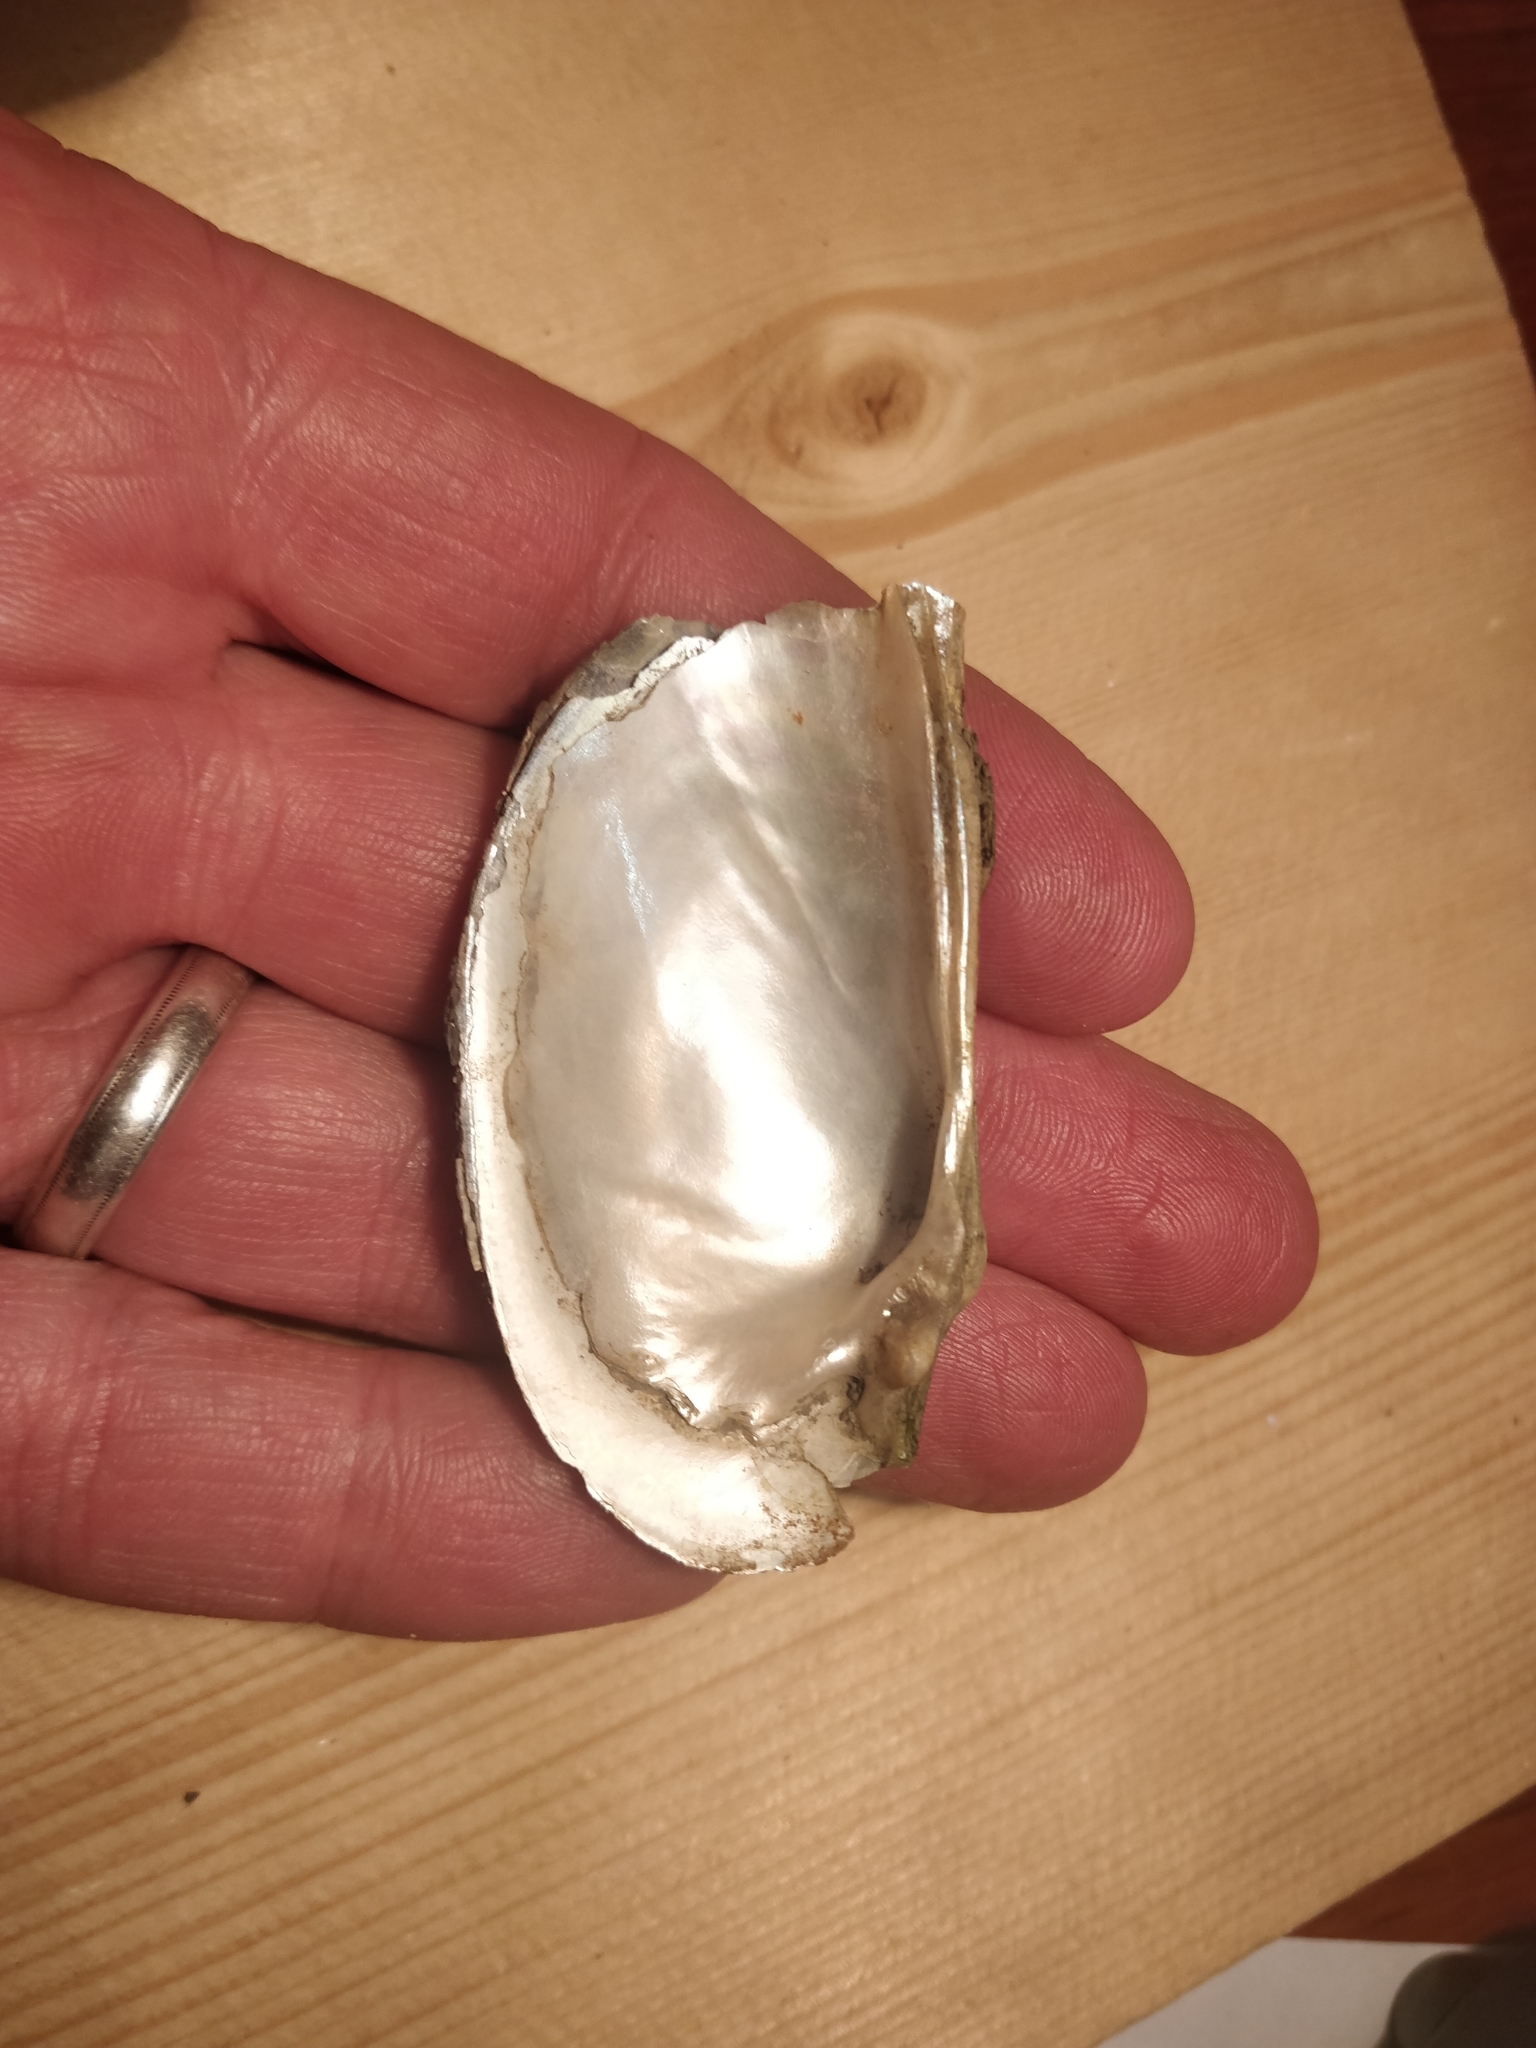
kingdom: Animalia
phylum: Mollusca
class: Bivalvia
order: Unionida
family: Unionidae
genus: Sagittunio
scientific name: Sagittunio subrostratus
